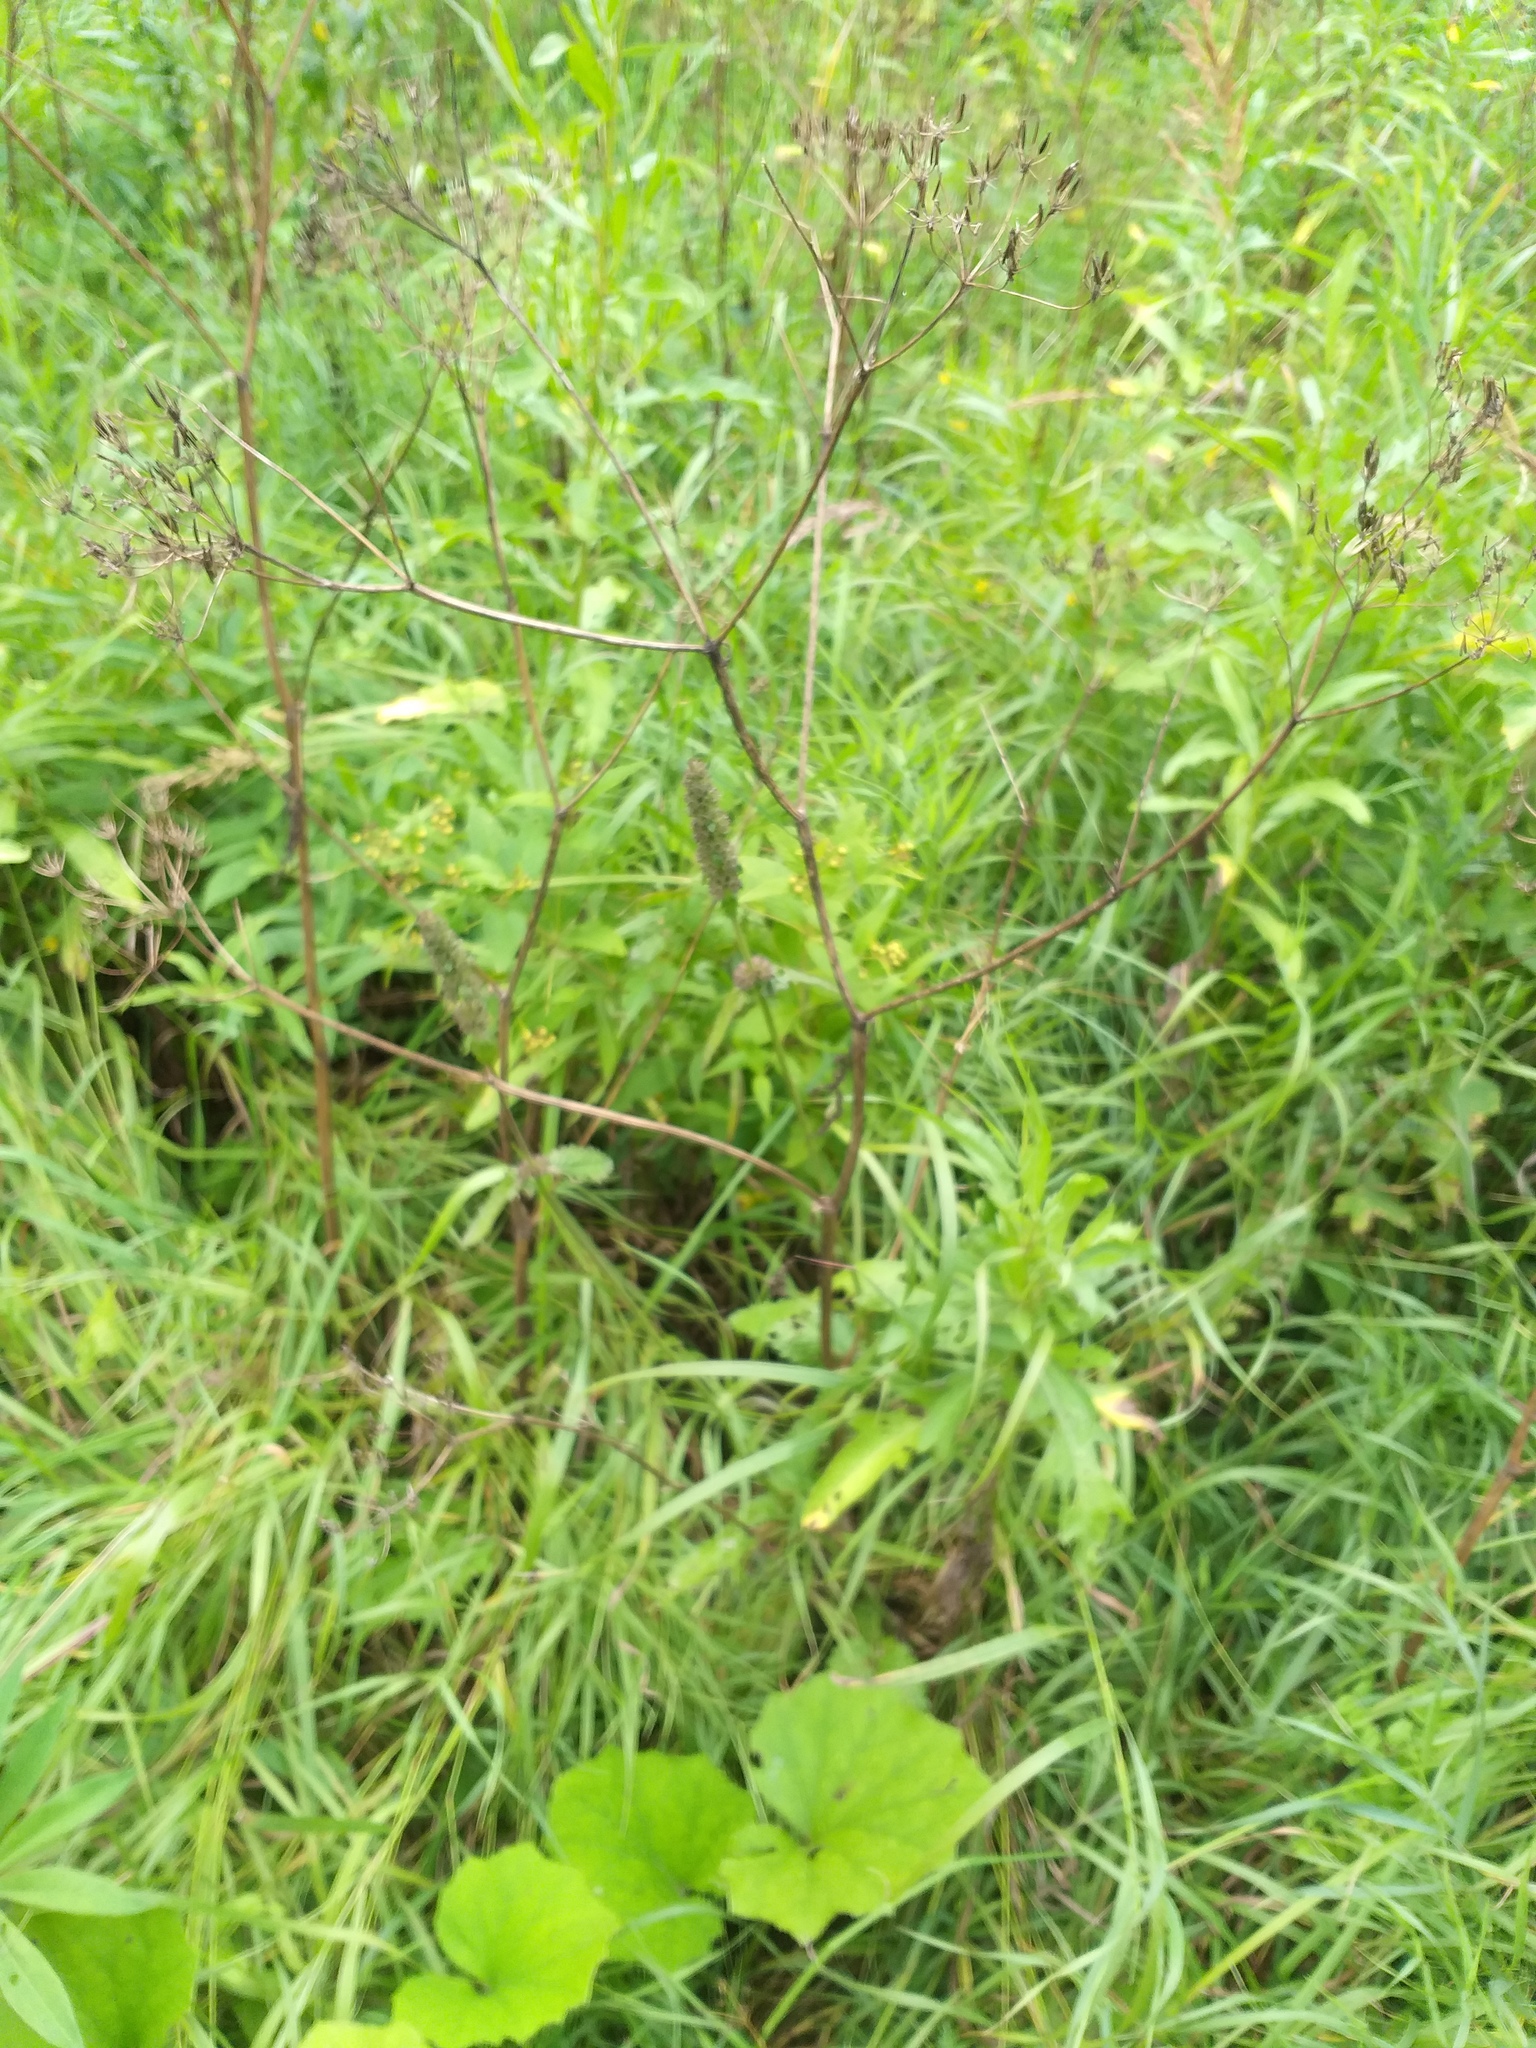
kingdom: Plantae
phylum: Tracheophyta
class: Magnoliopsida
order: Apiales
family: Apiaceae
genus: Anthriscus
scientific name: Anthriscus sylvestris
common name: Cow parsley
